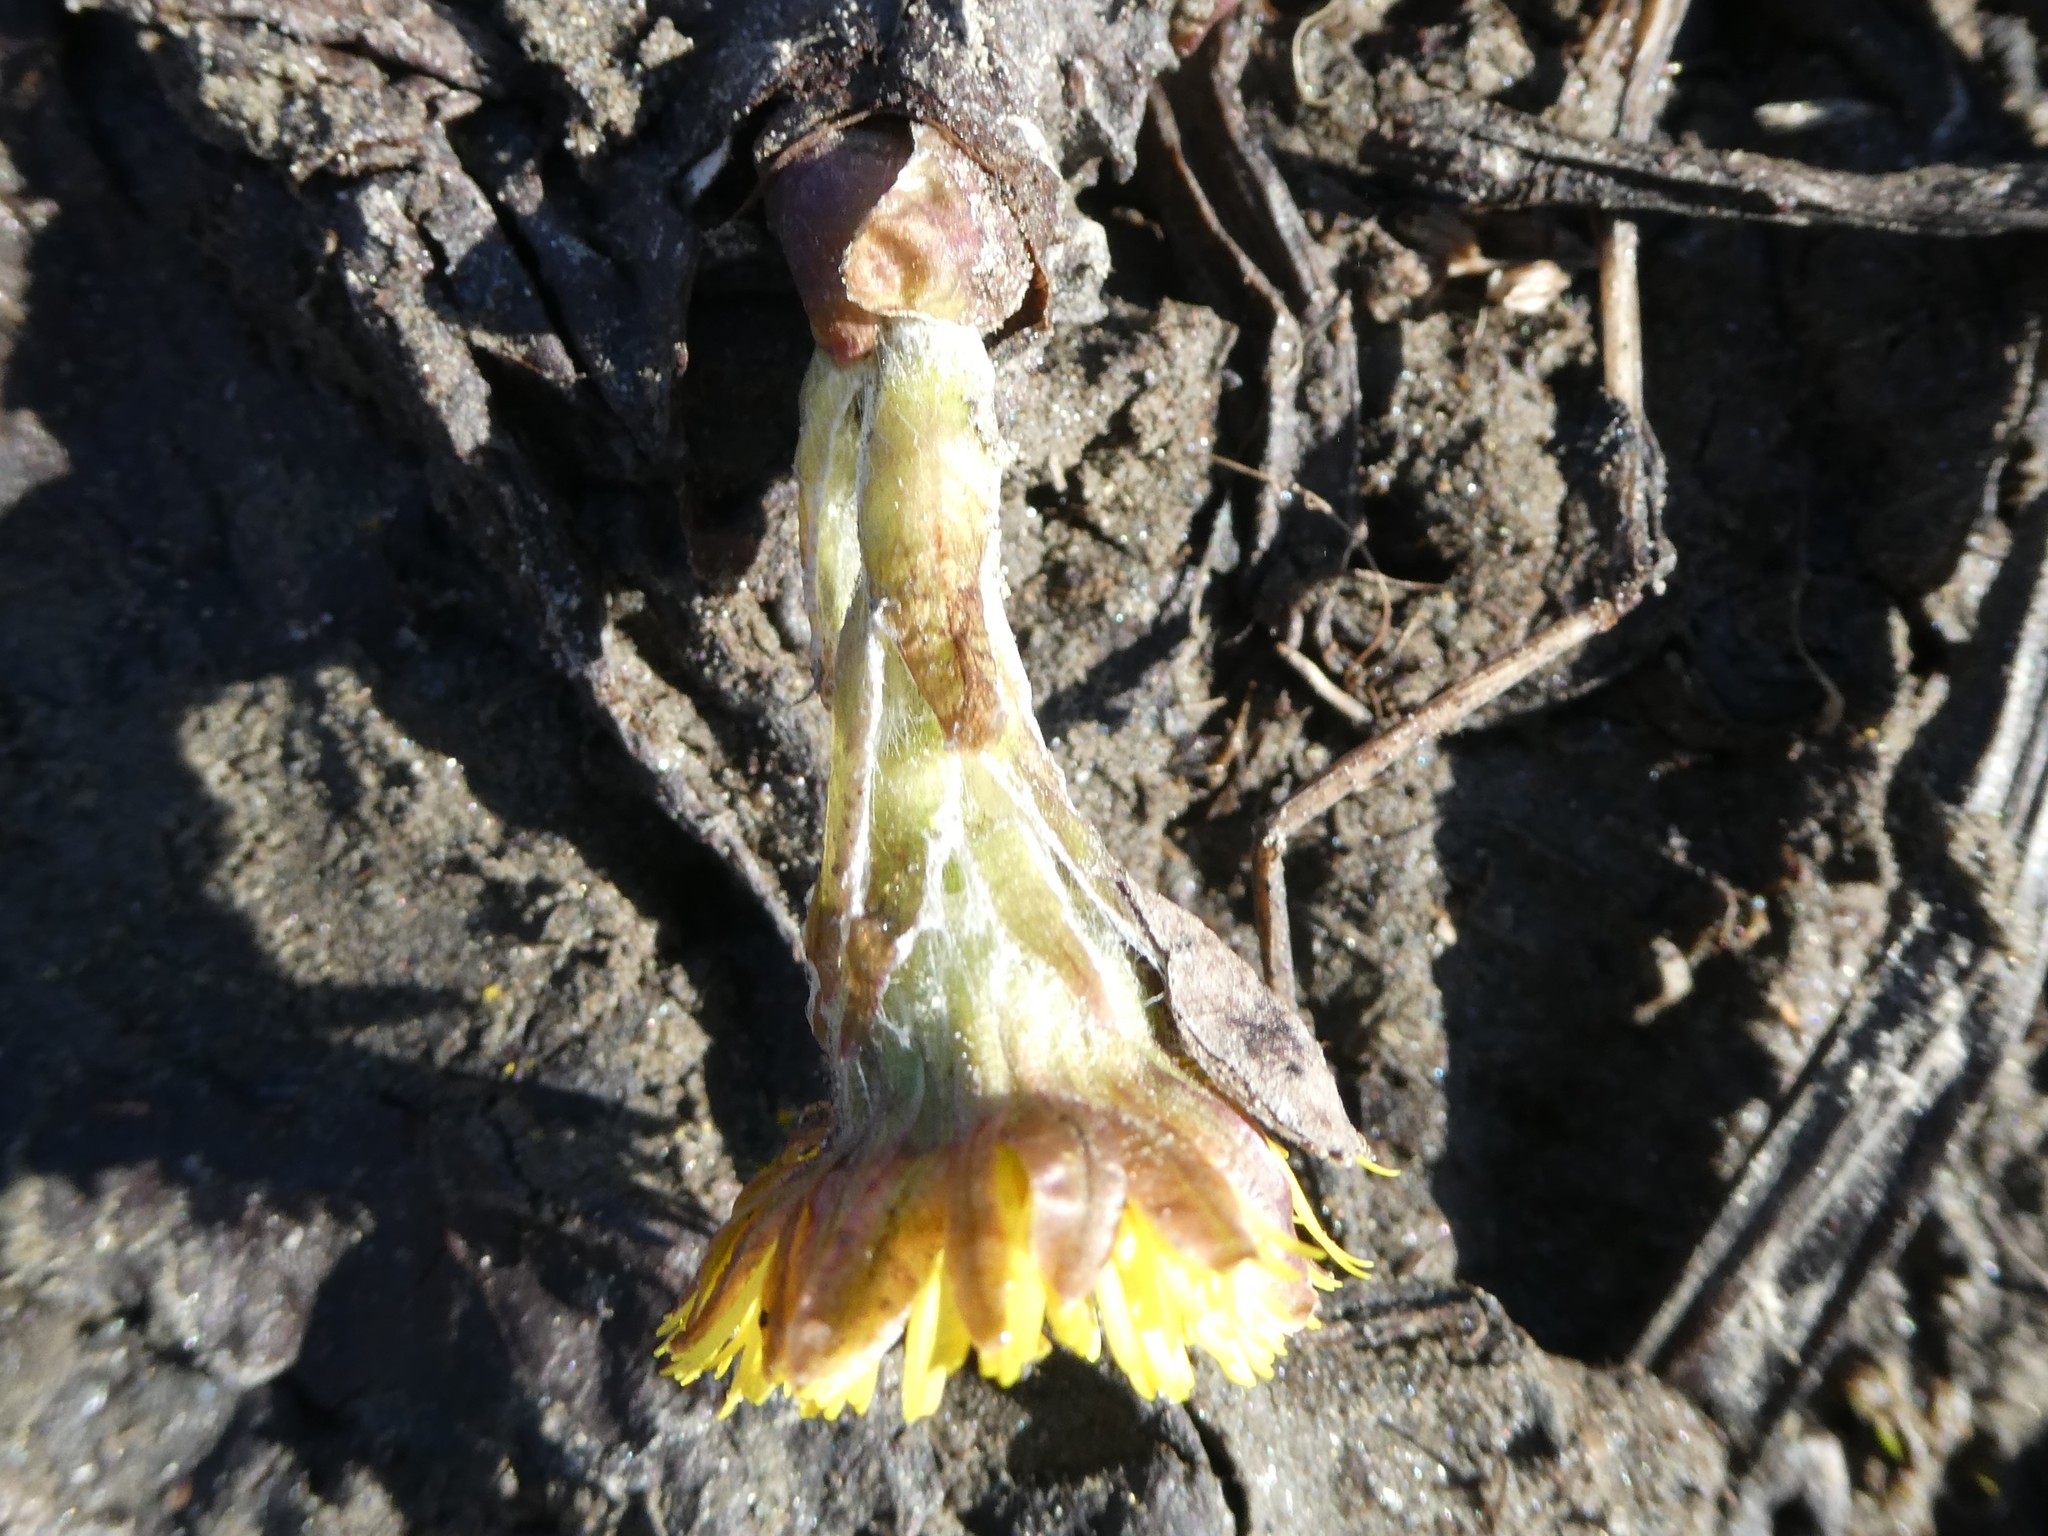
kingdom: Plantae
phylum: Tracheophyta
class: Magnoliopsida
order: Asterales
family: Asteraceae
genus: Tussilago
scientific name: Tussilago farfara
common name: Coltsfoot
